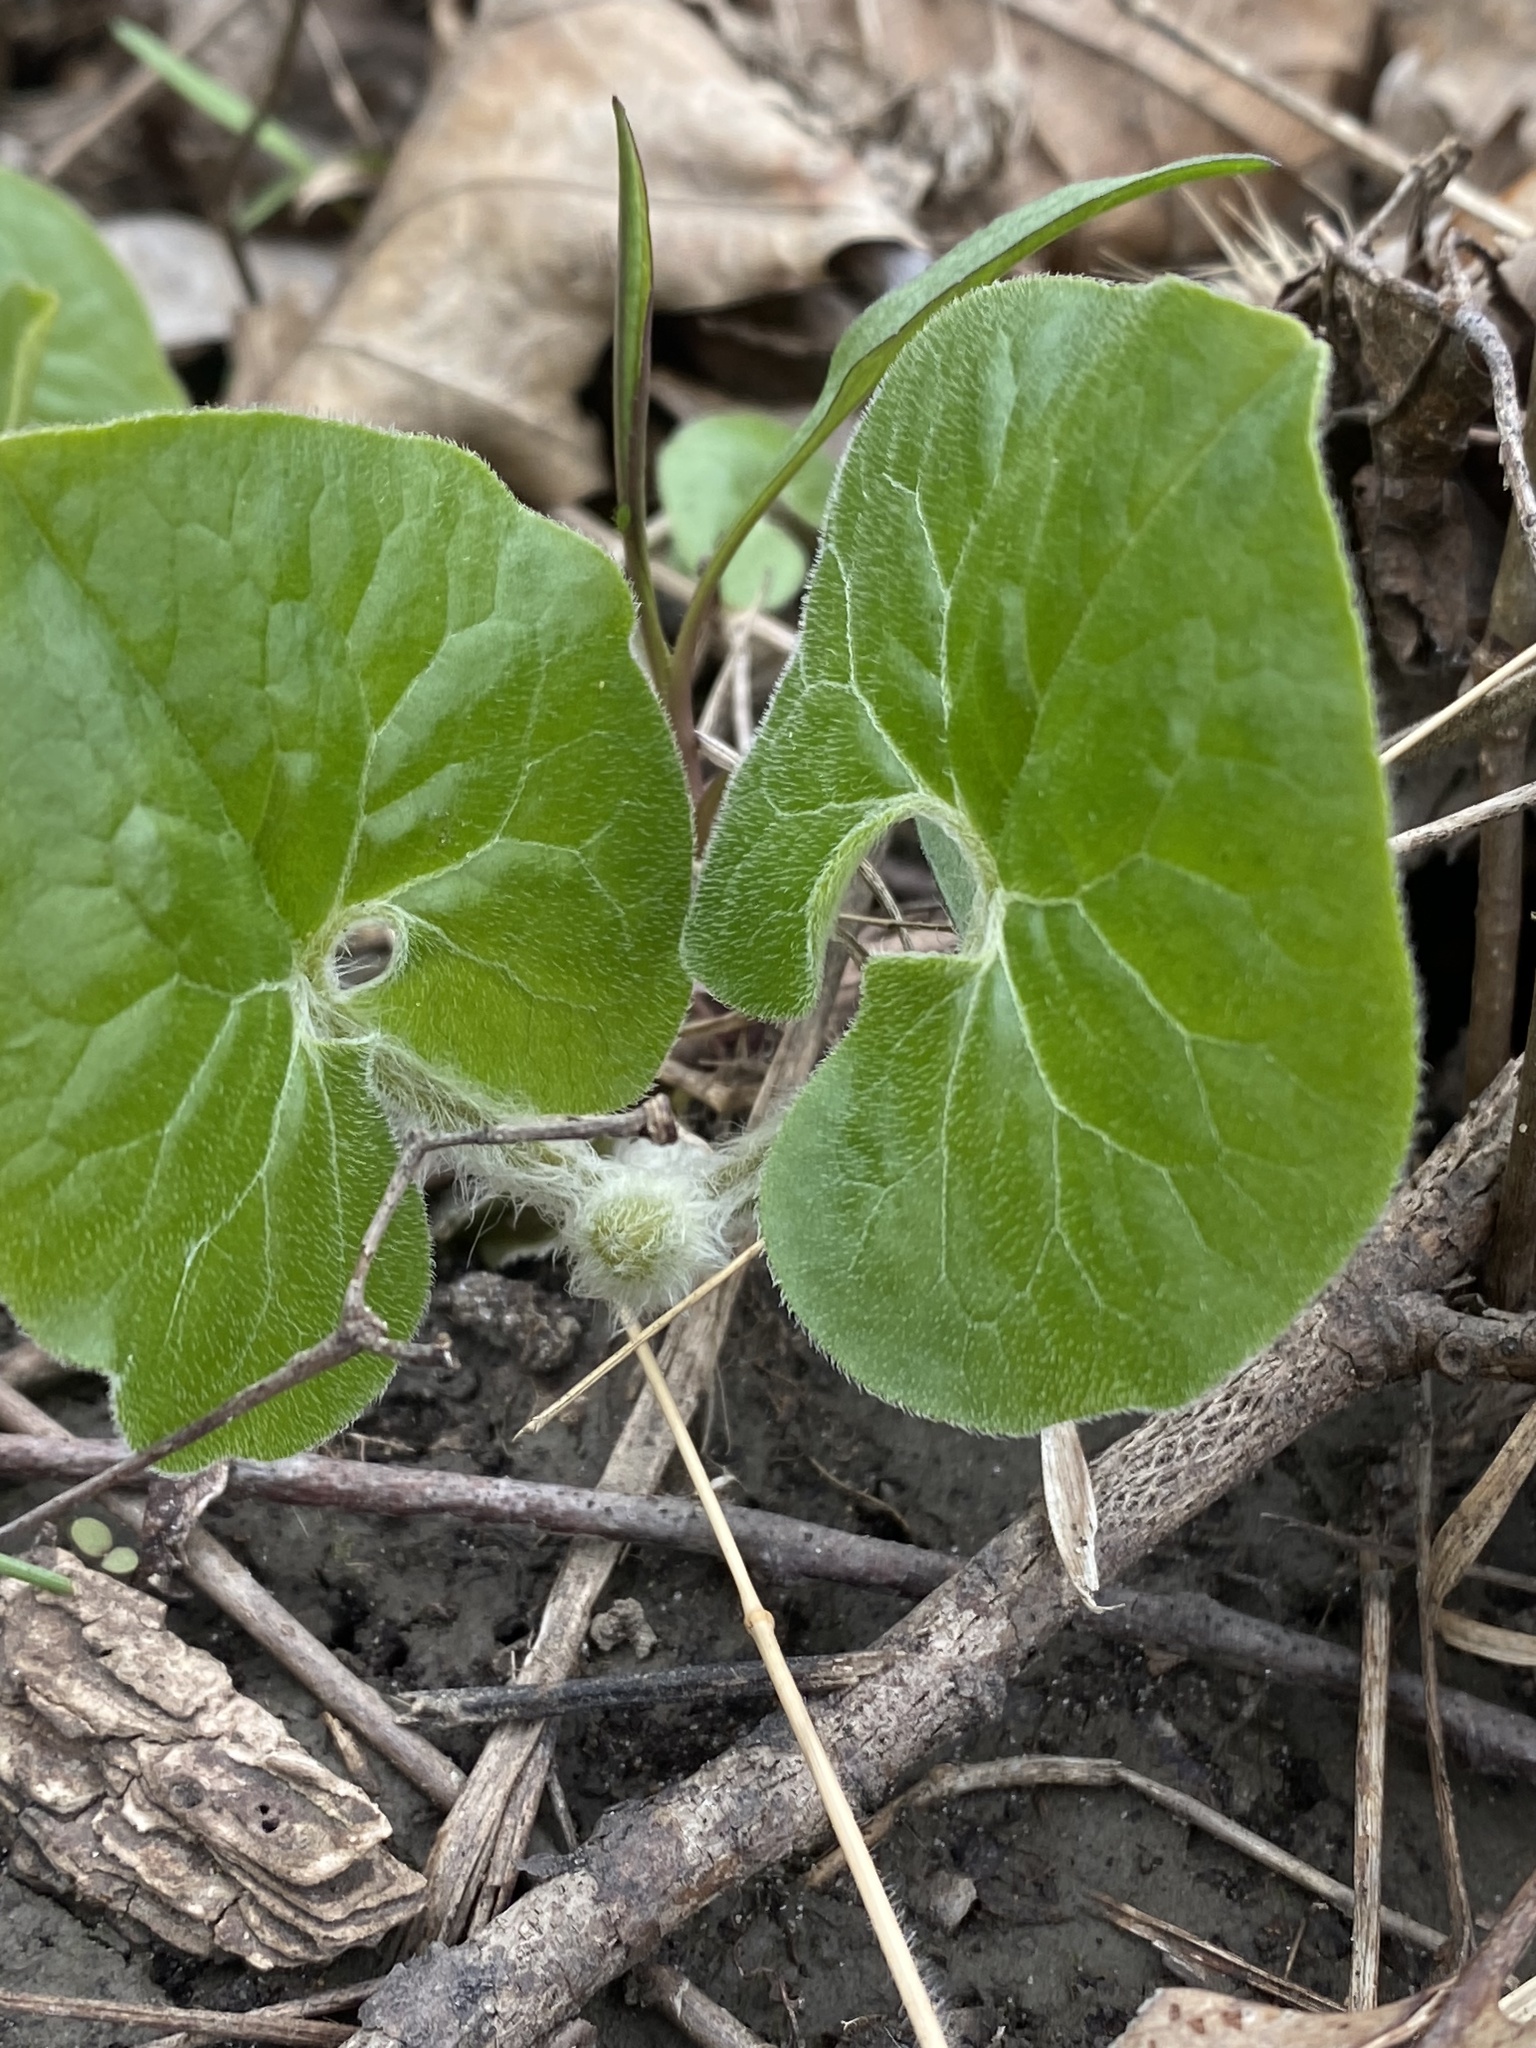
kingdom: Plantae
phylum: Tracheophyta
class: Magnoliopsida
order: Piperales
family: Aristolochiaceae
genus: Asarum
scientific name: Asarum canadense
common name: Wild ginger
